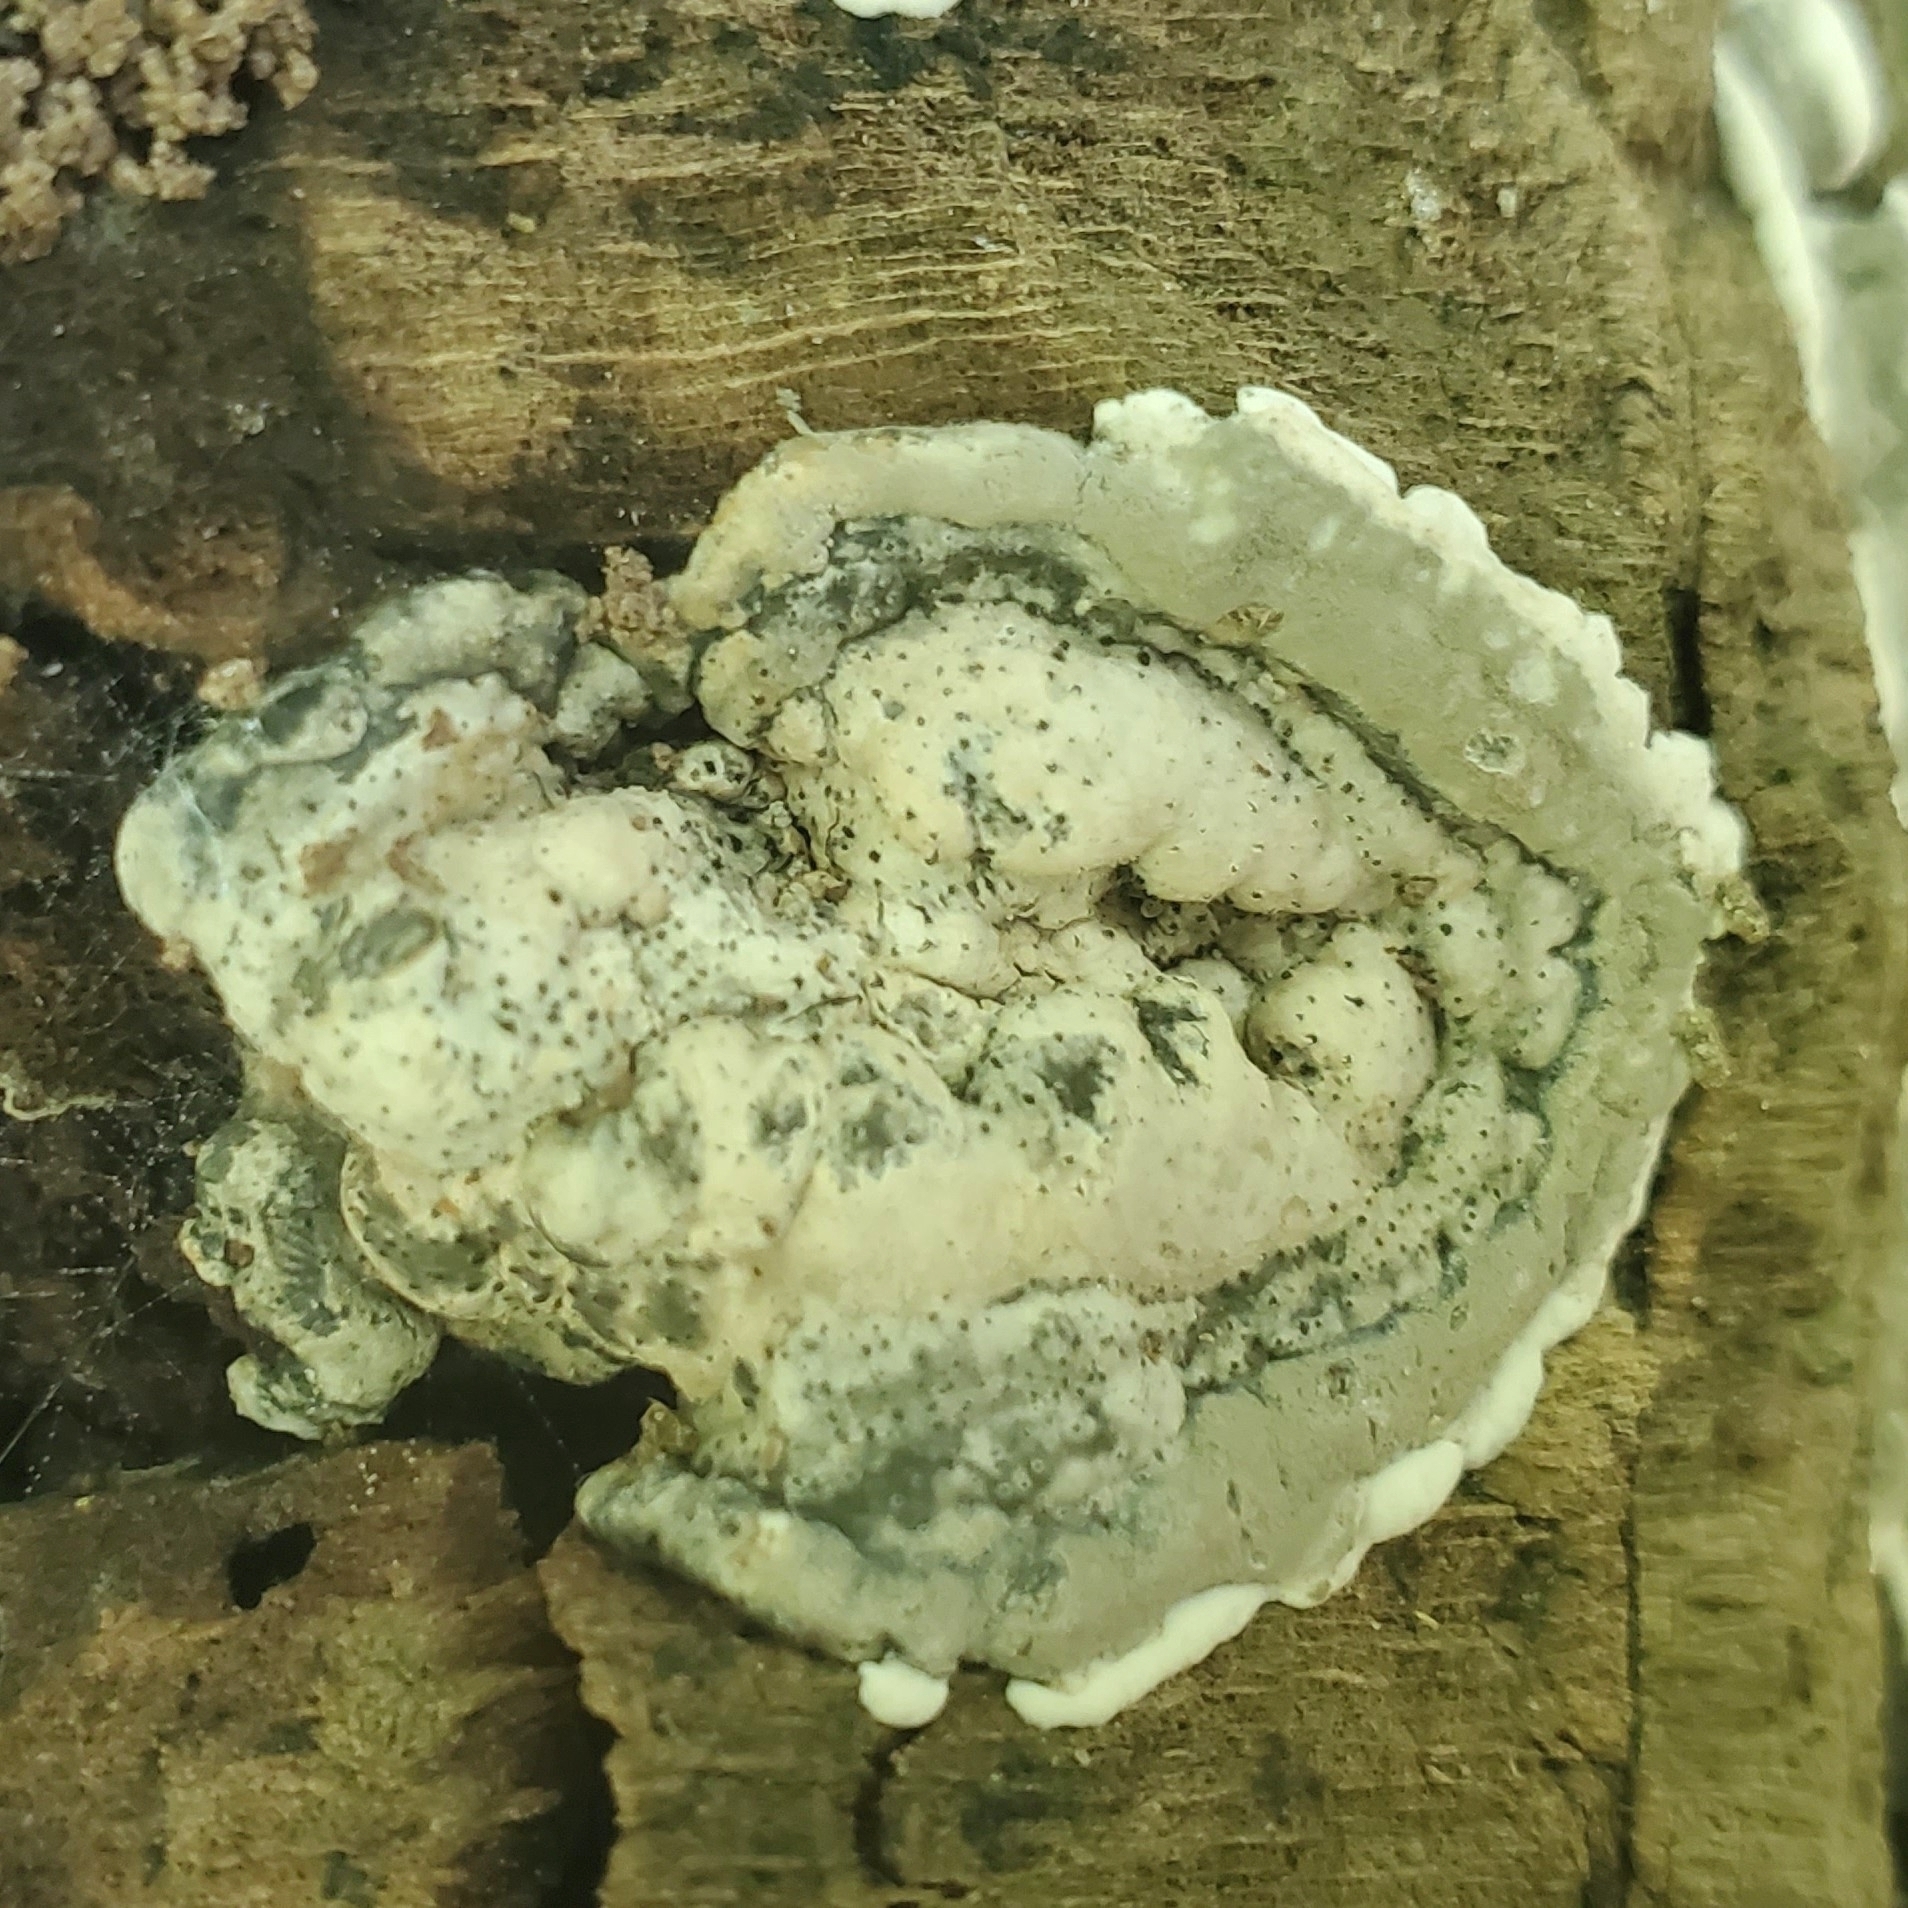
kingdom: Fungi
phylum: Ascomycota
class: Sordariomycetes
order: Xylariales
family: Xylariaceae
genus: Kretzschmaria
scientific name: Kretzschmaria deusta
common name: Brittle cinder
